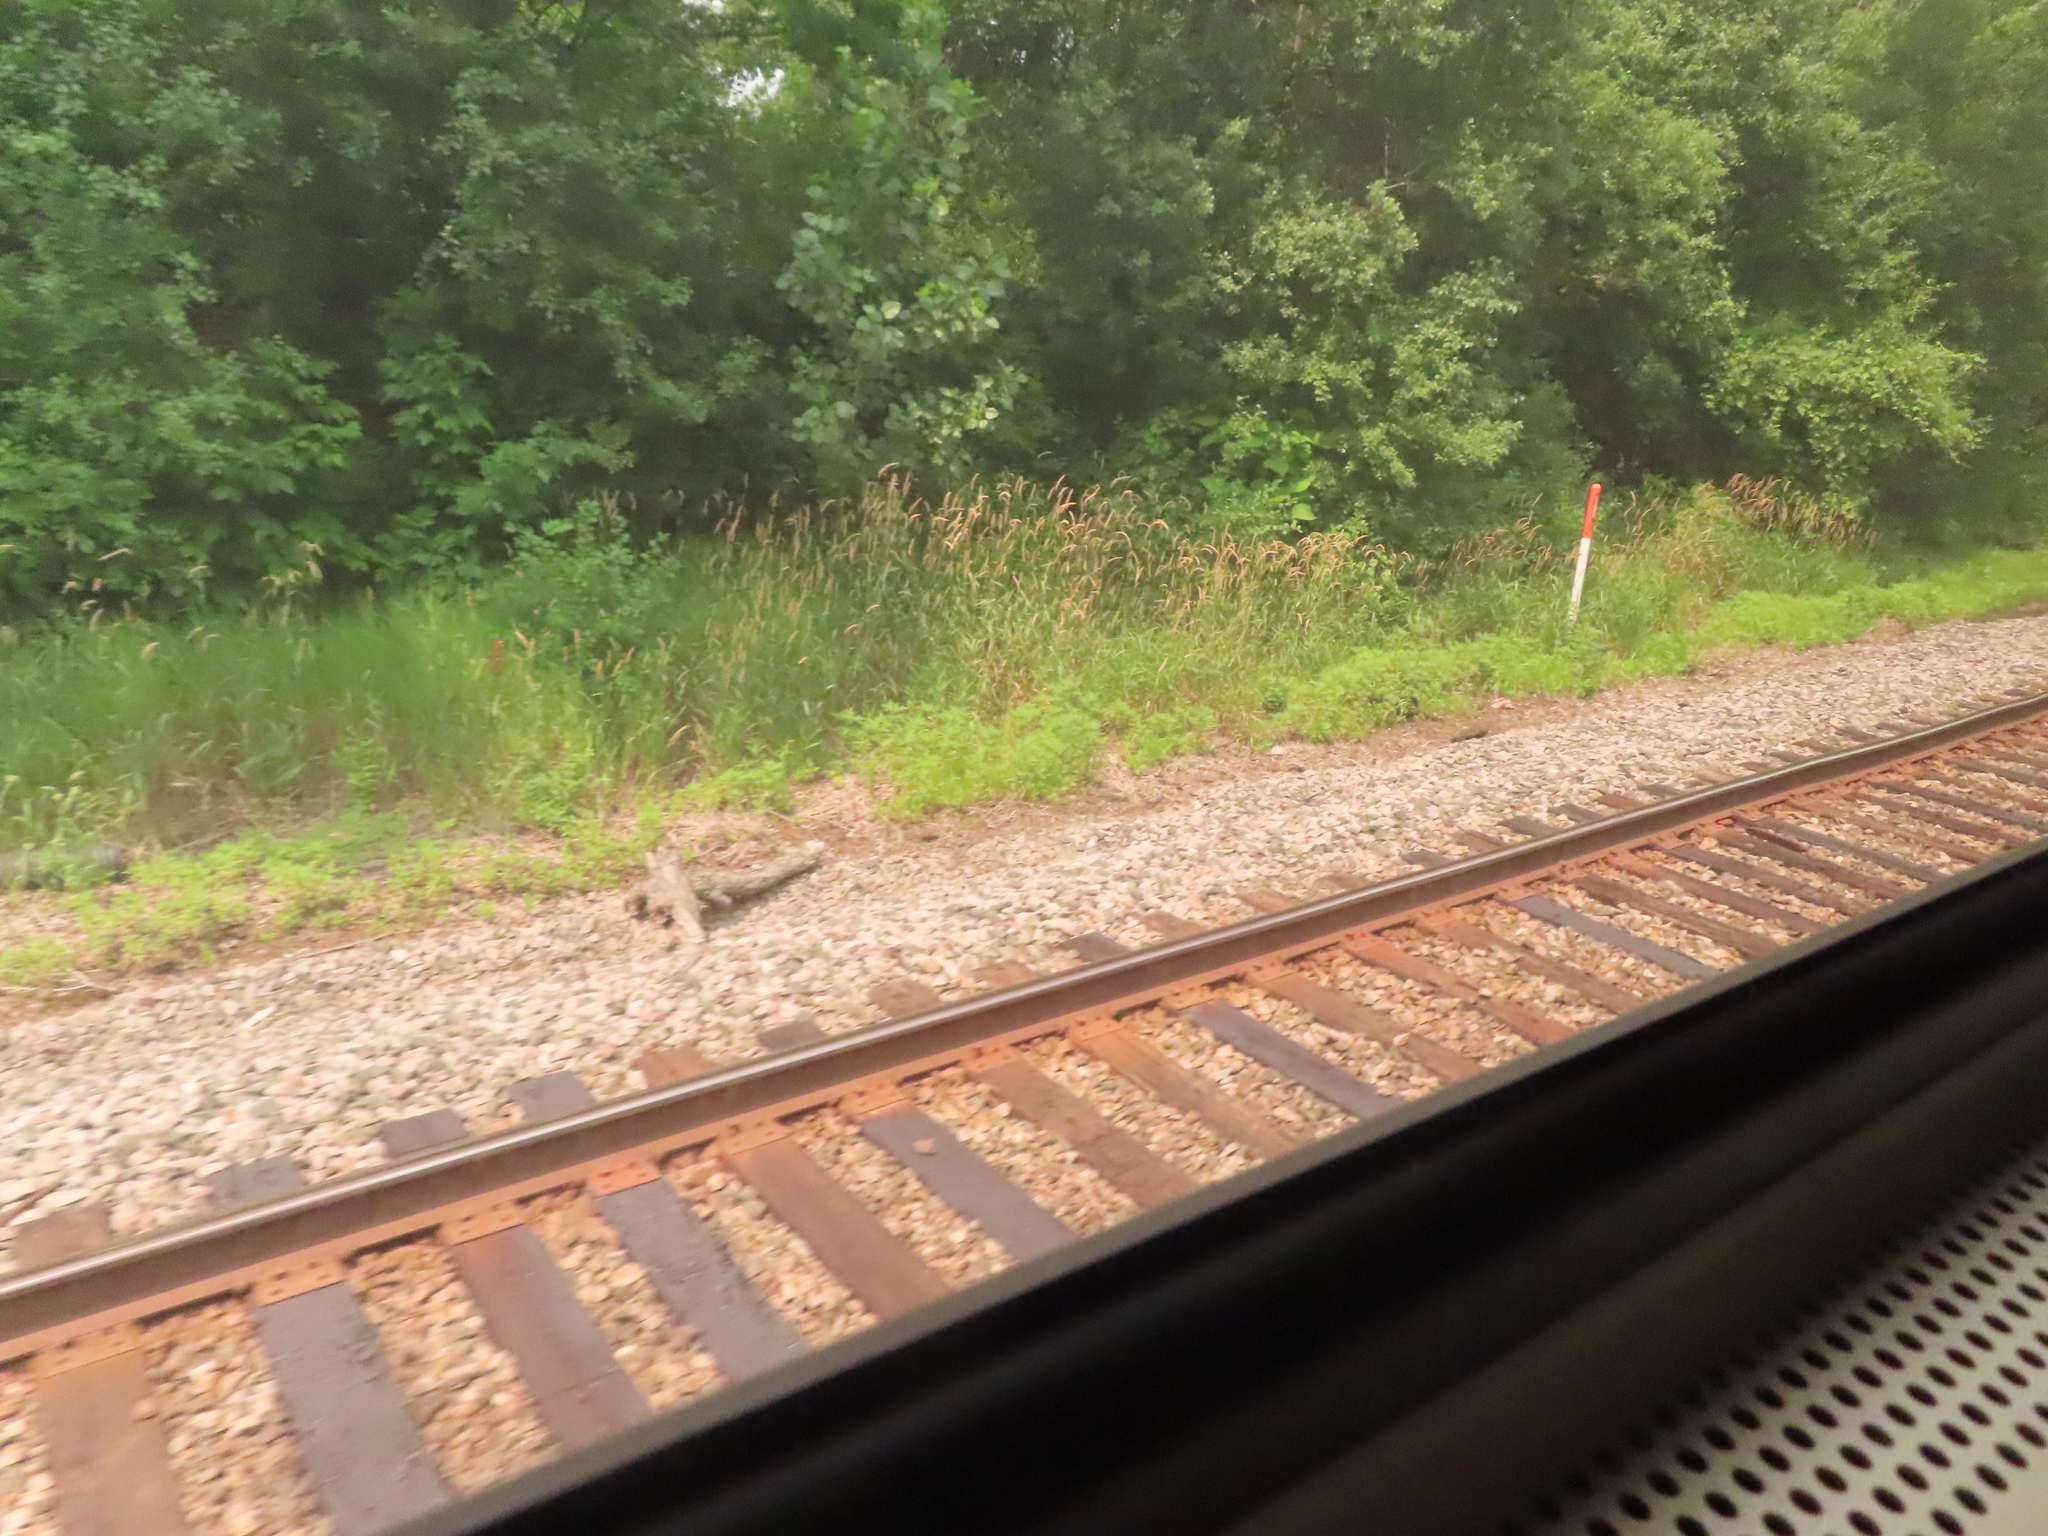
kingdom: Plantae
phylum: Tracheophyta
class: Liliopsida
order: Poales
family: Poaceae
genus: Phalaris
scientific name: Phalaris arundinacea
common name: Reed canary-grass
